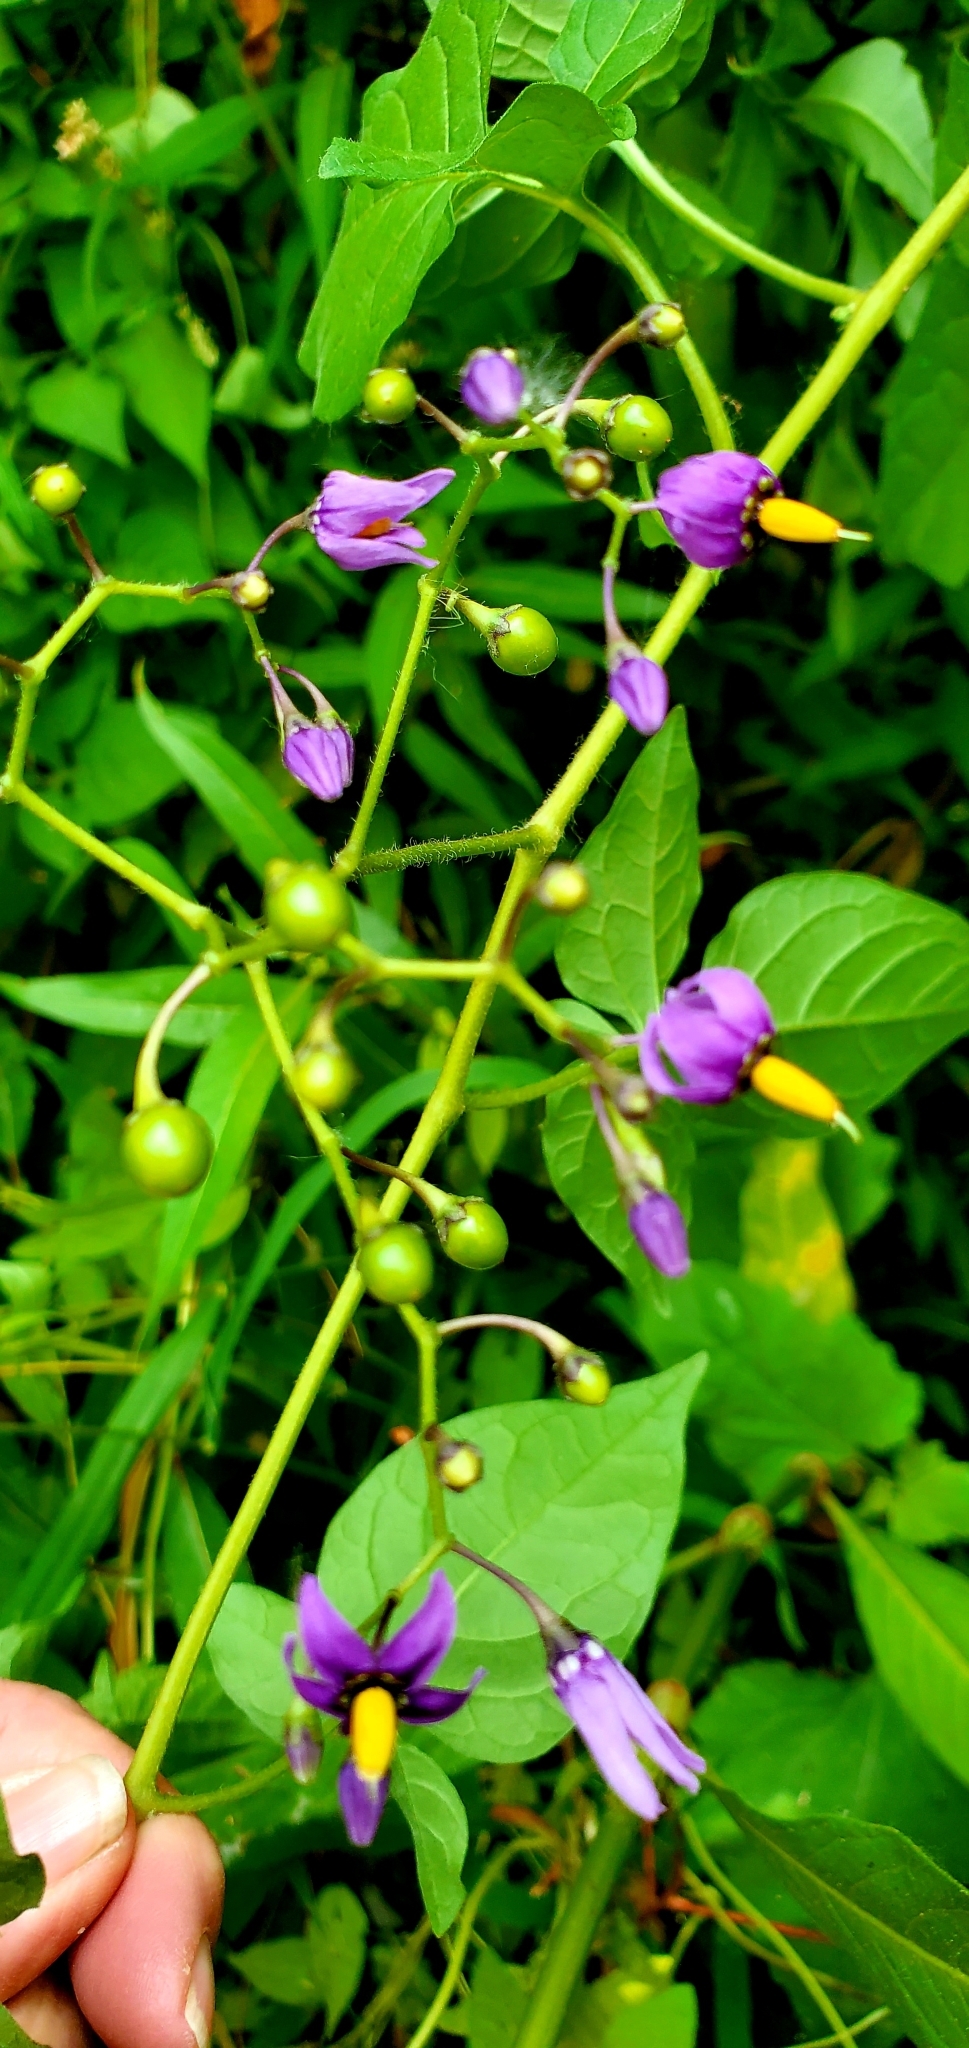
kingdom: Plantae
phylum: Tracheophyta
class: Magnoliopsida
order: Solanales
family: Solanaceae
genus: Solanum
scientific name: Solanum dulcamara
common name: Climbing nightshade
